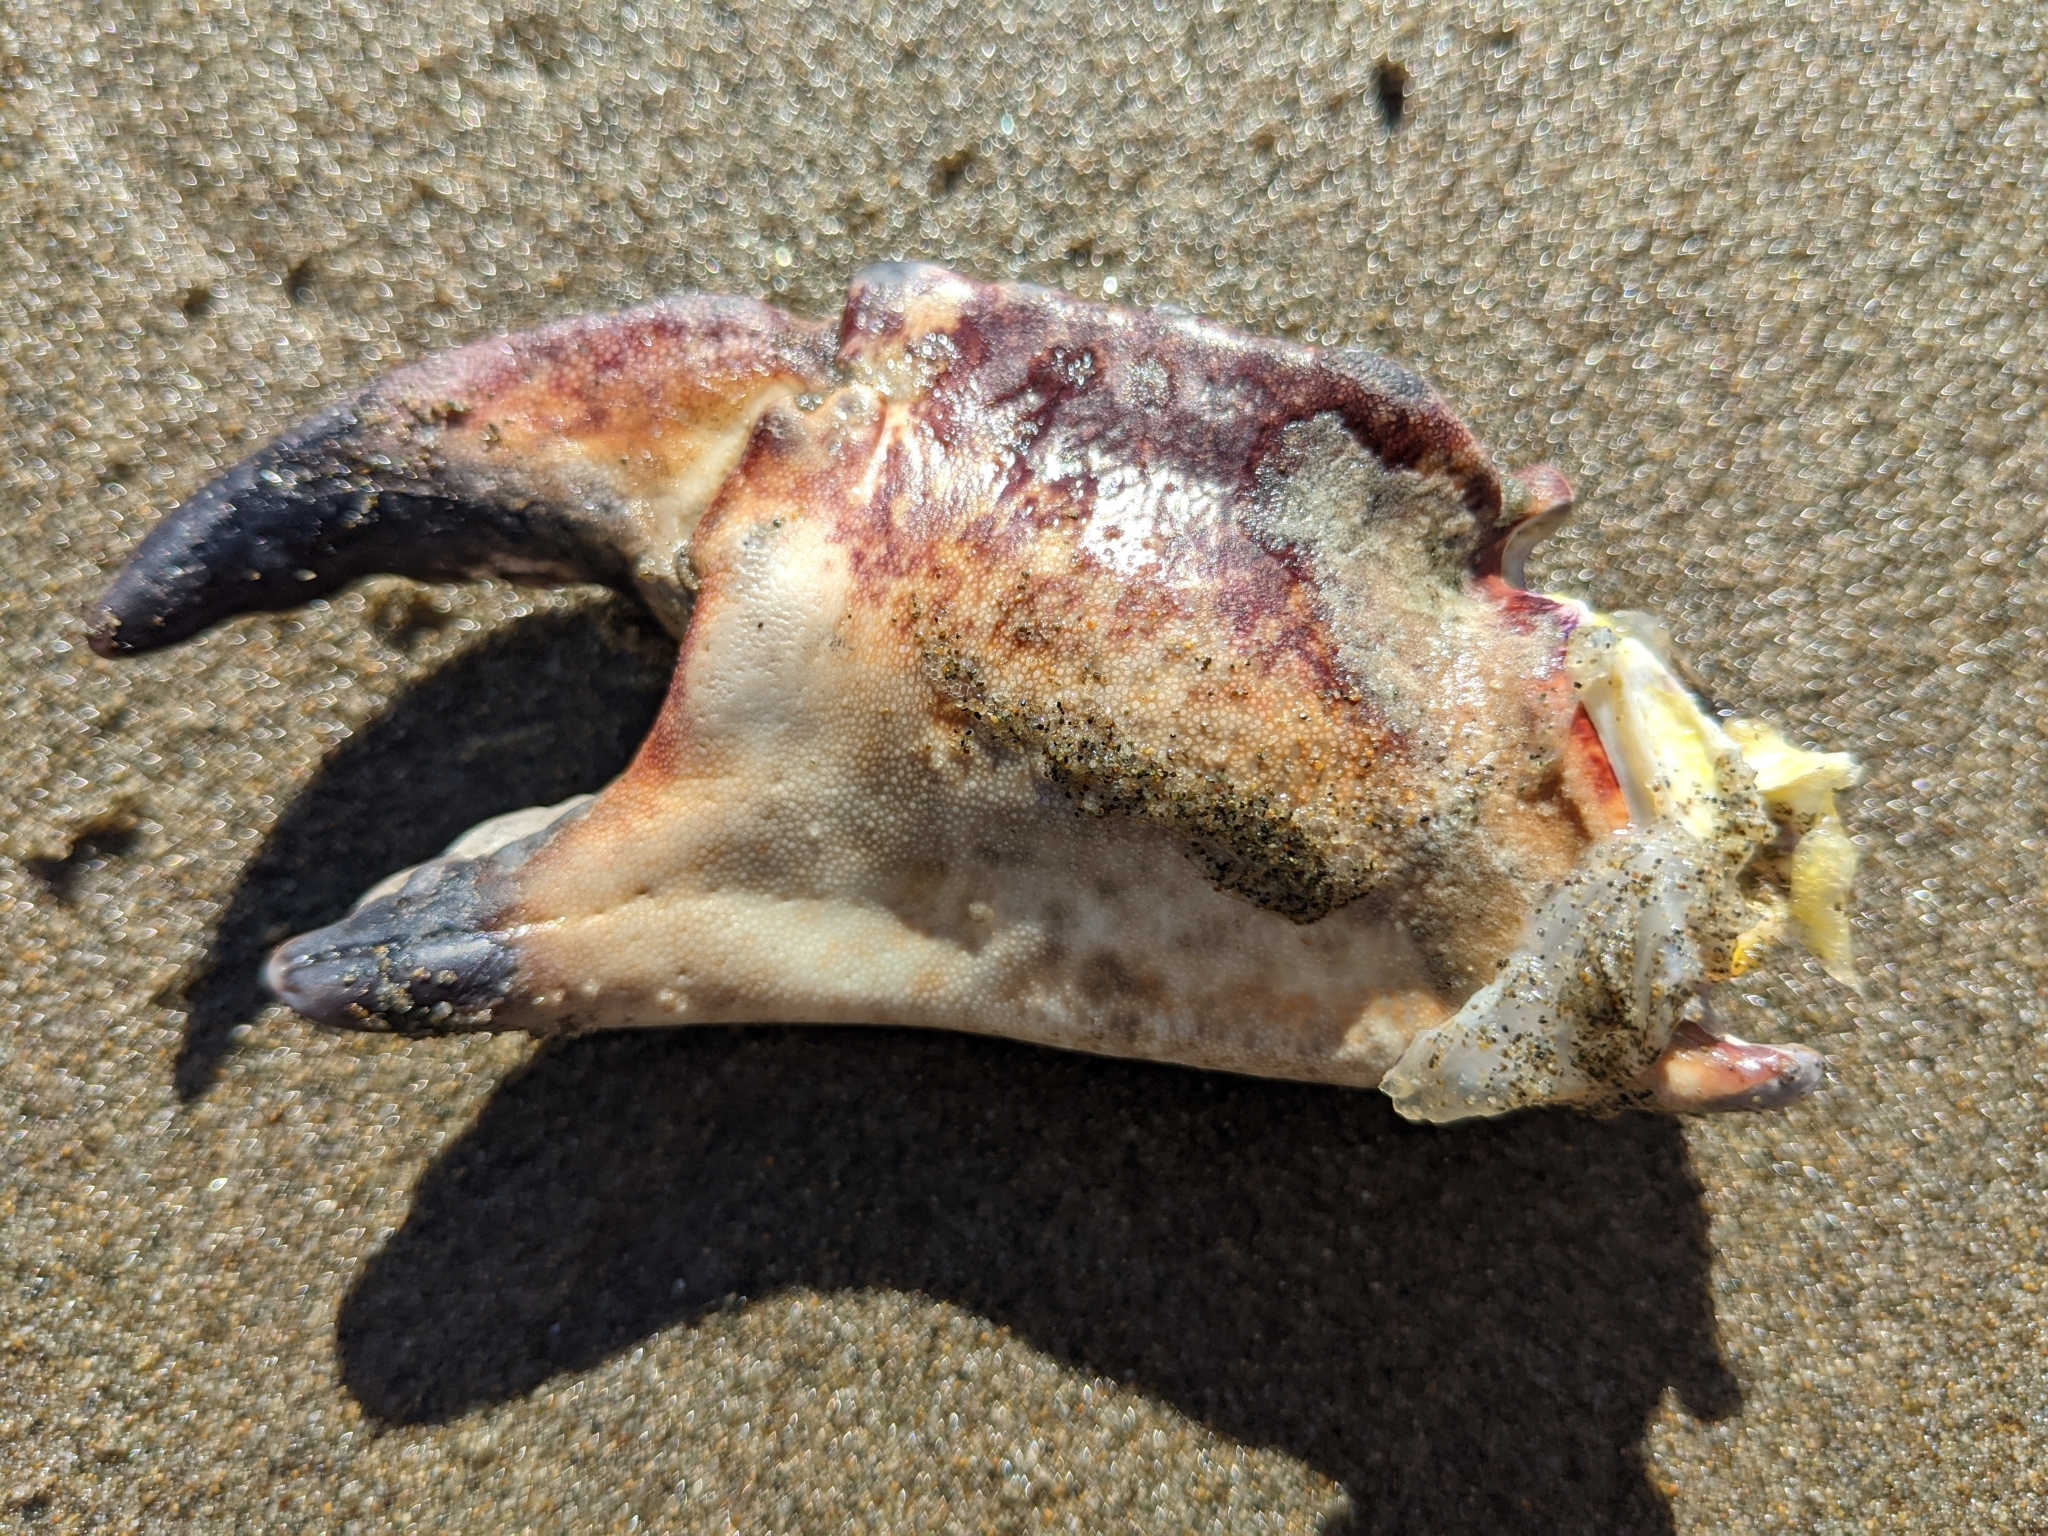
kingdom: Animalia
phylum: Arthropoda
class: Malacostraca
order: Decapoda
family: Cancridae
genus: Cancer
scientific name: Cancer productus
